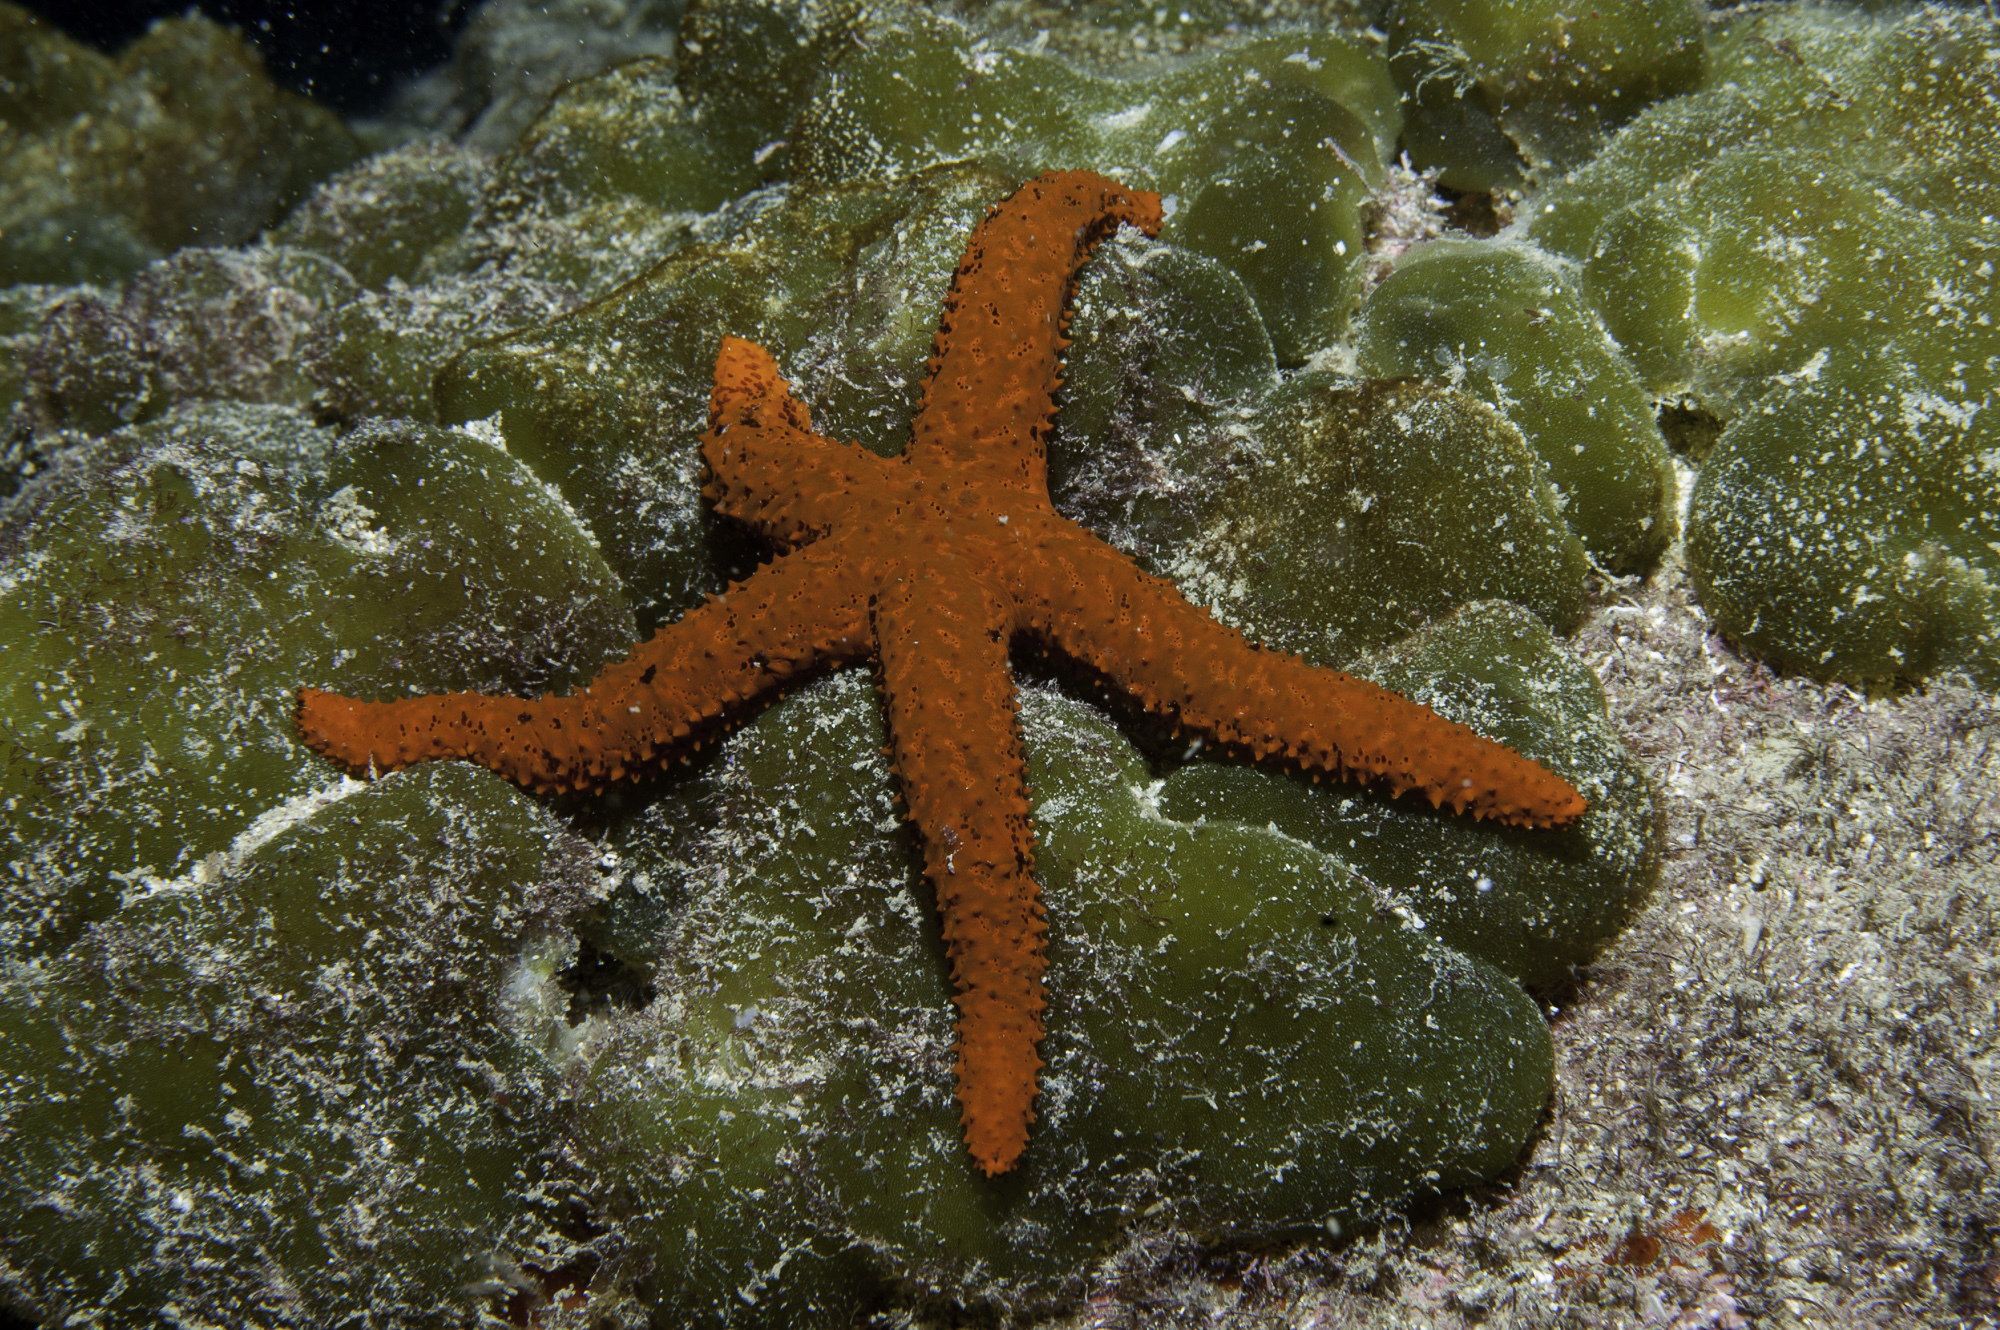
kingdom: Animalia
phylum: Echinodermata
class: Asteroidea
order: Spinulosida
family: Echinasteridae
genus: Echinaster
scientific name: Echinaster brasiliensis
